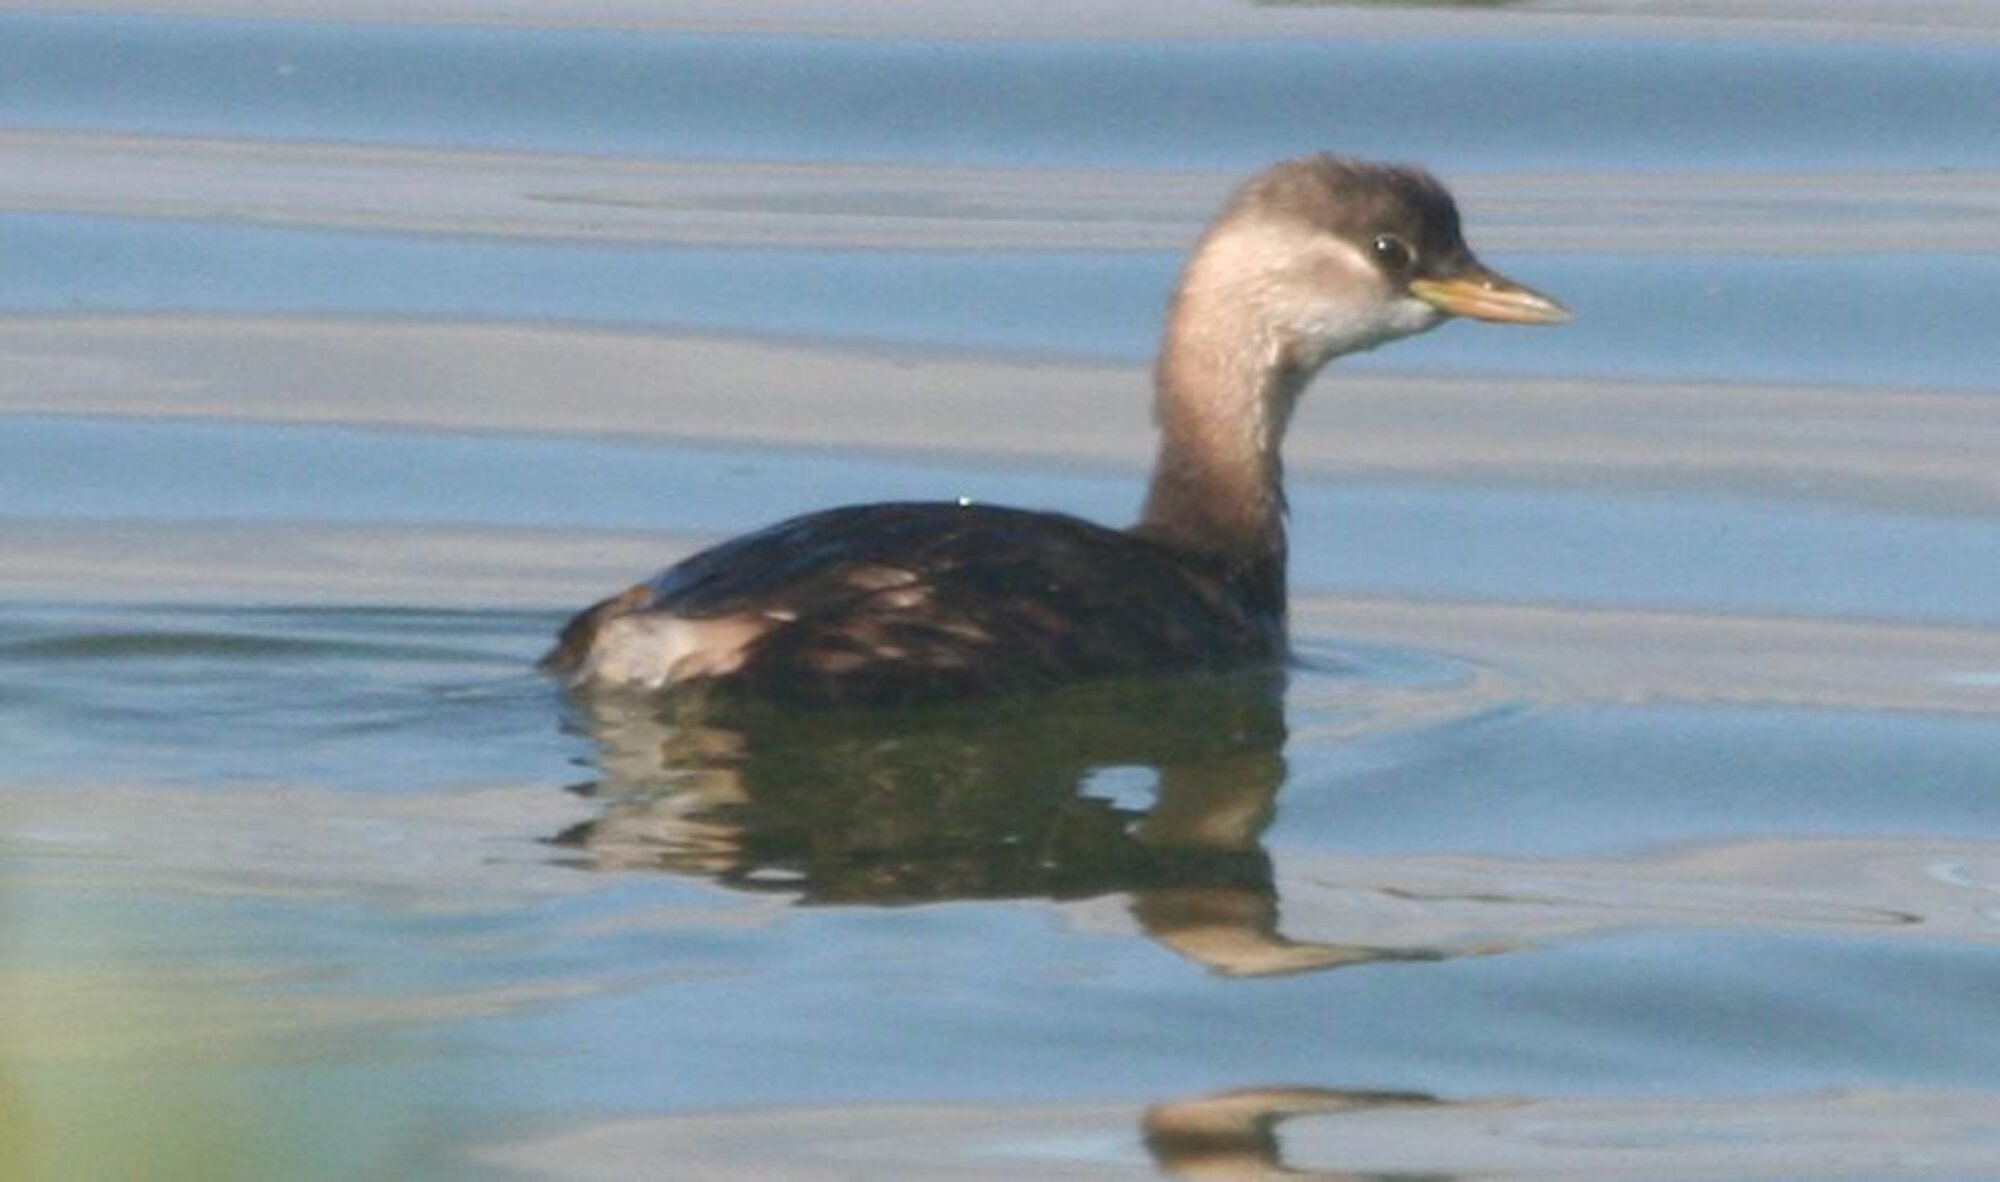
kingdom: Animalia
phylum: Chordata
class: Aves
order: Podicipediformes
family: Podicipedidae
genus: Tachybaptus
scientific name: Tachybaptus ruficollis
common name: Little grebe
